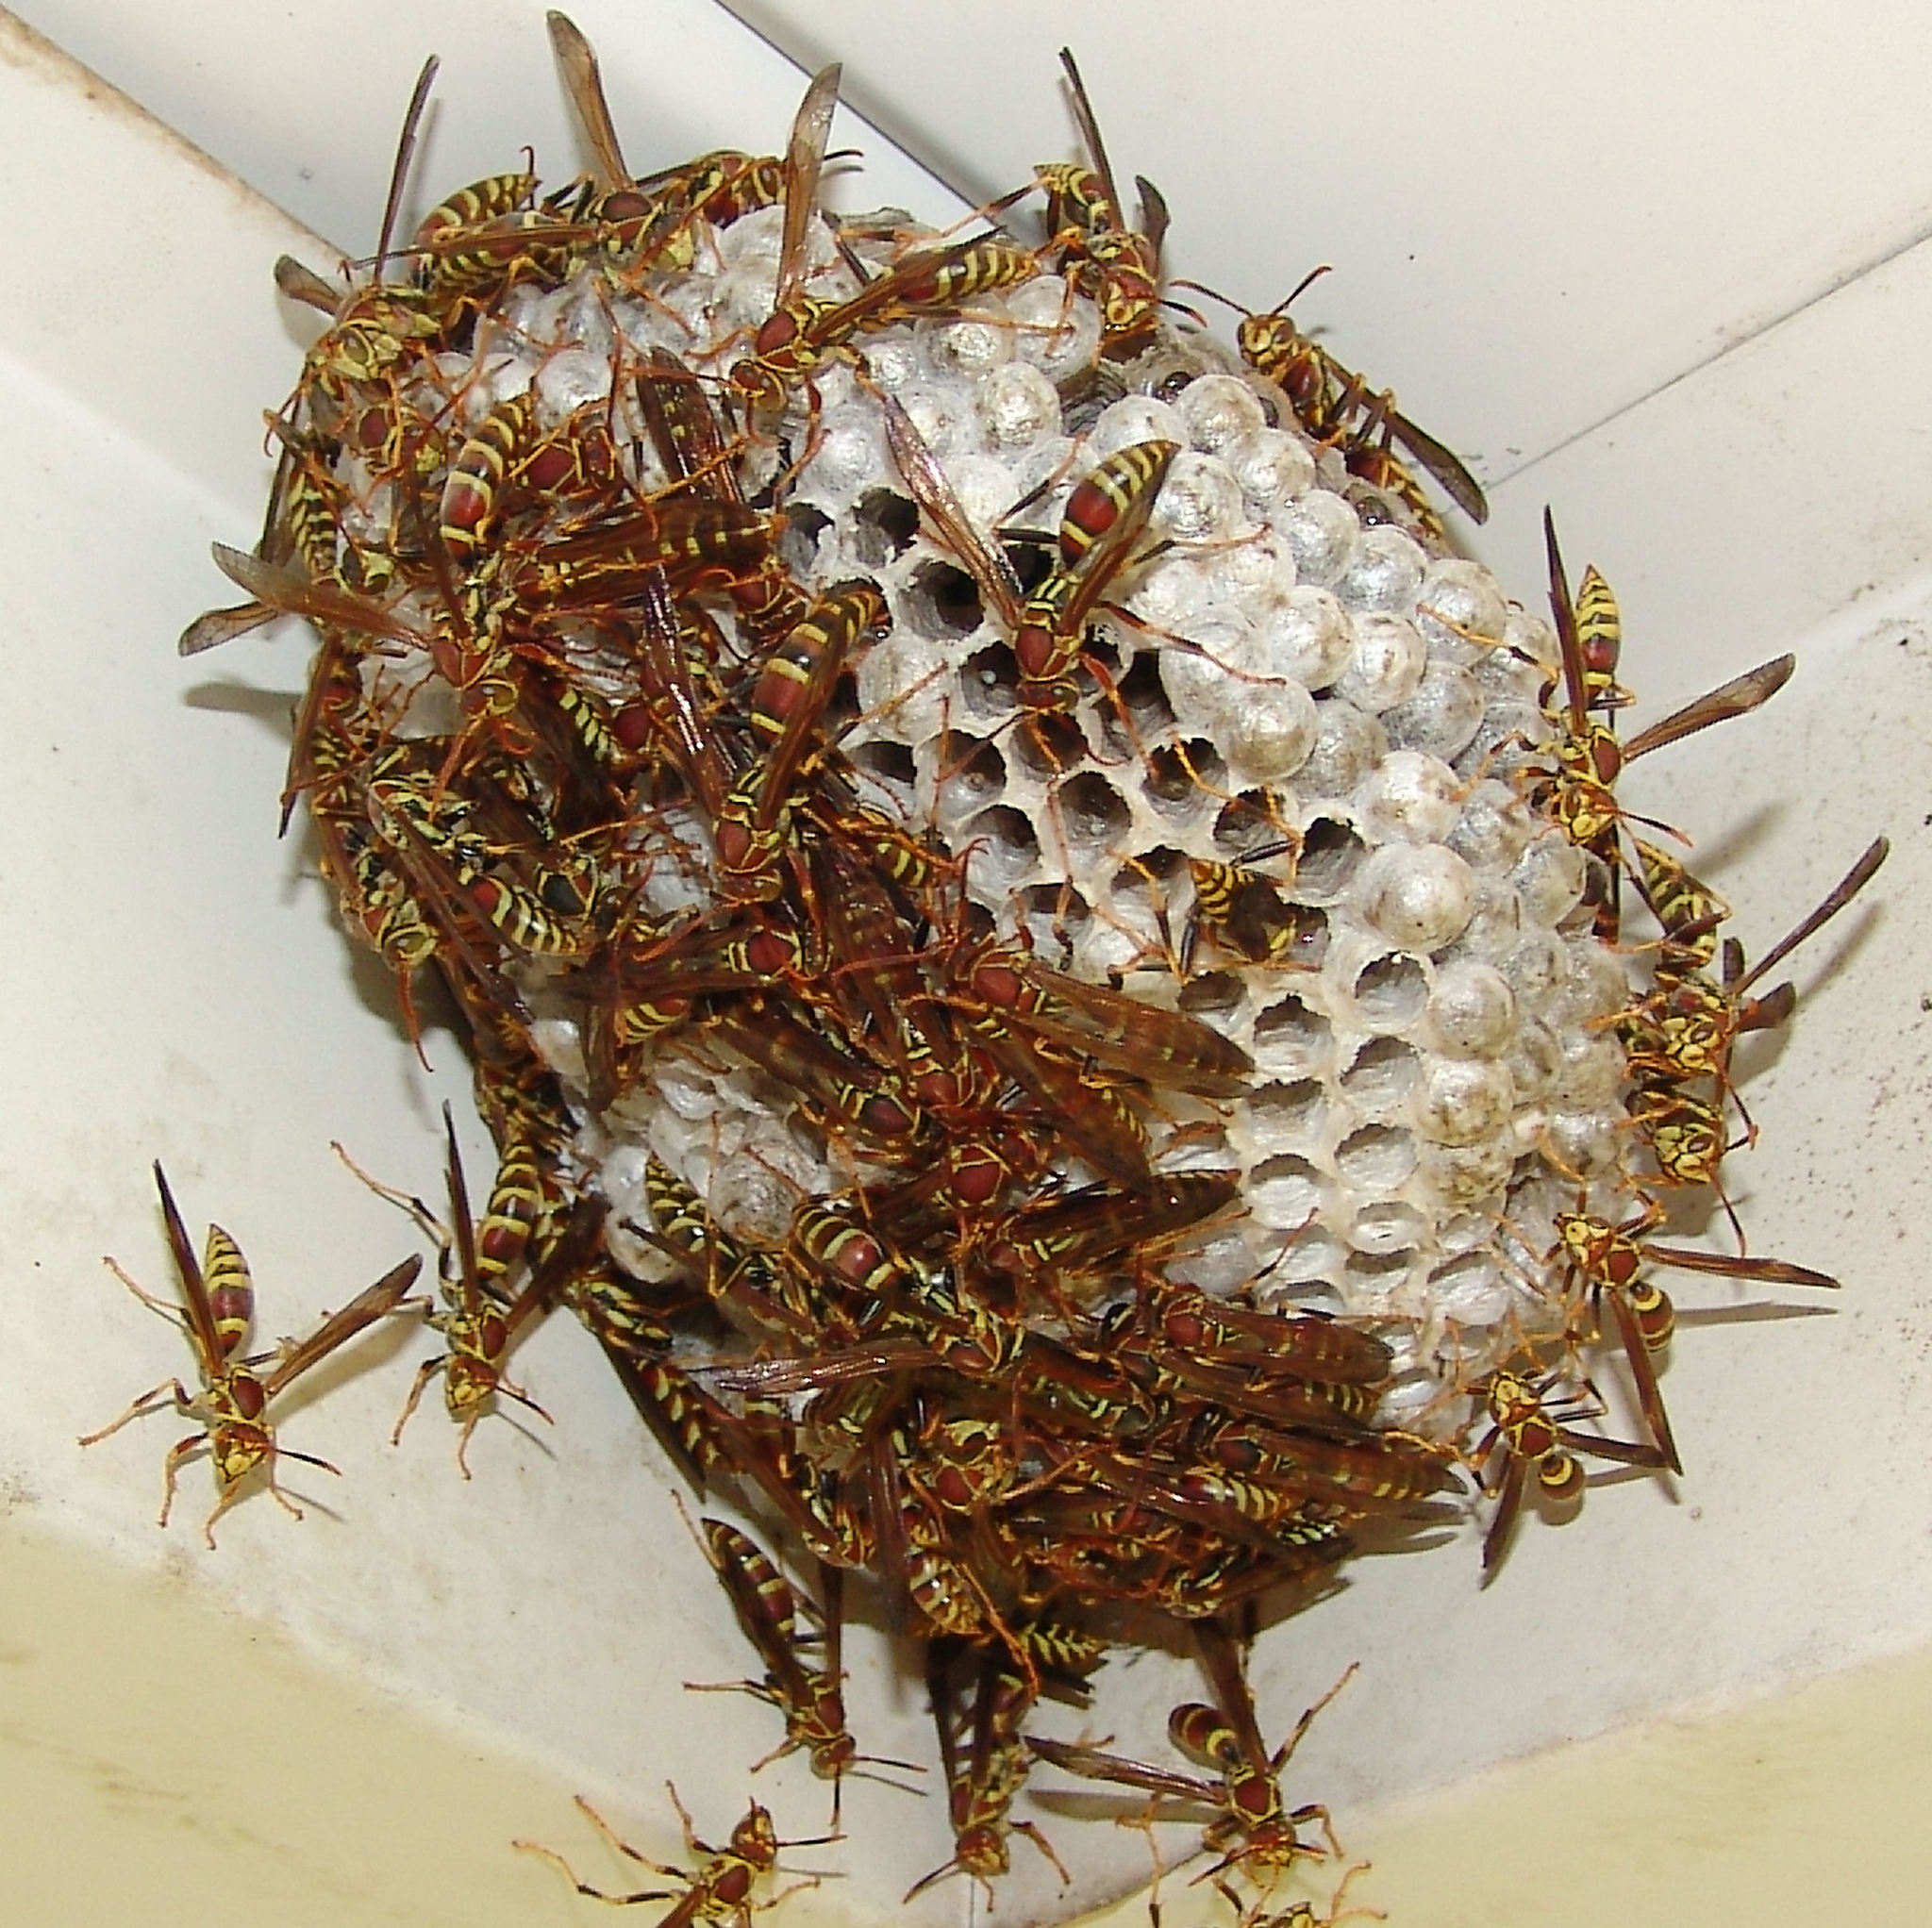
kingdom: Animalia
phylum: Arthropoda
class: Insecta
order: Hymenoptera
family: Eumenidae
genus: Polistes
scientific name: Polistes exclamans
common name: Paper wasp
